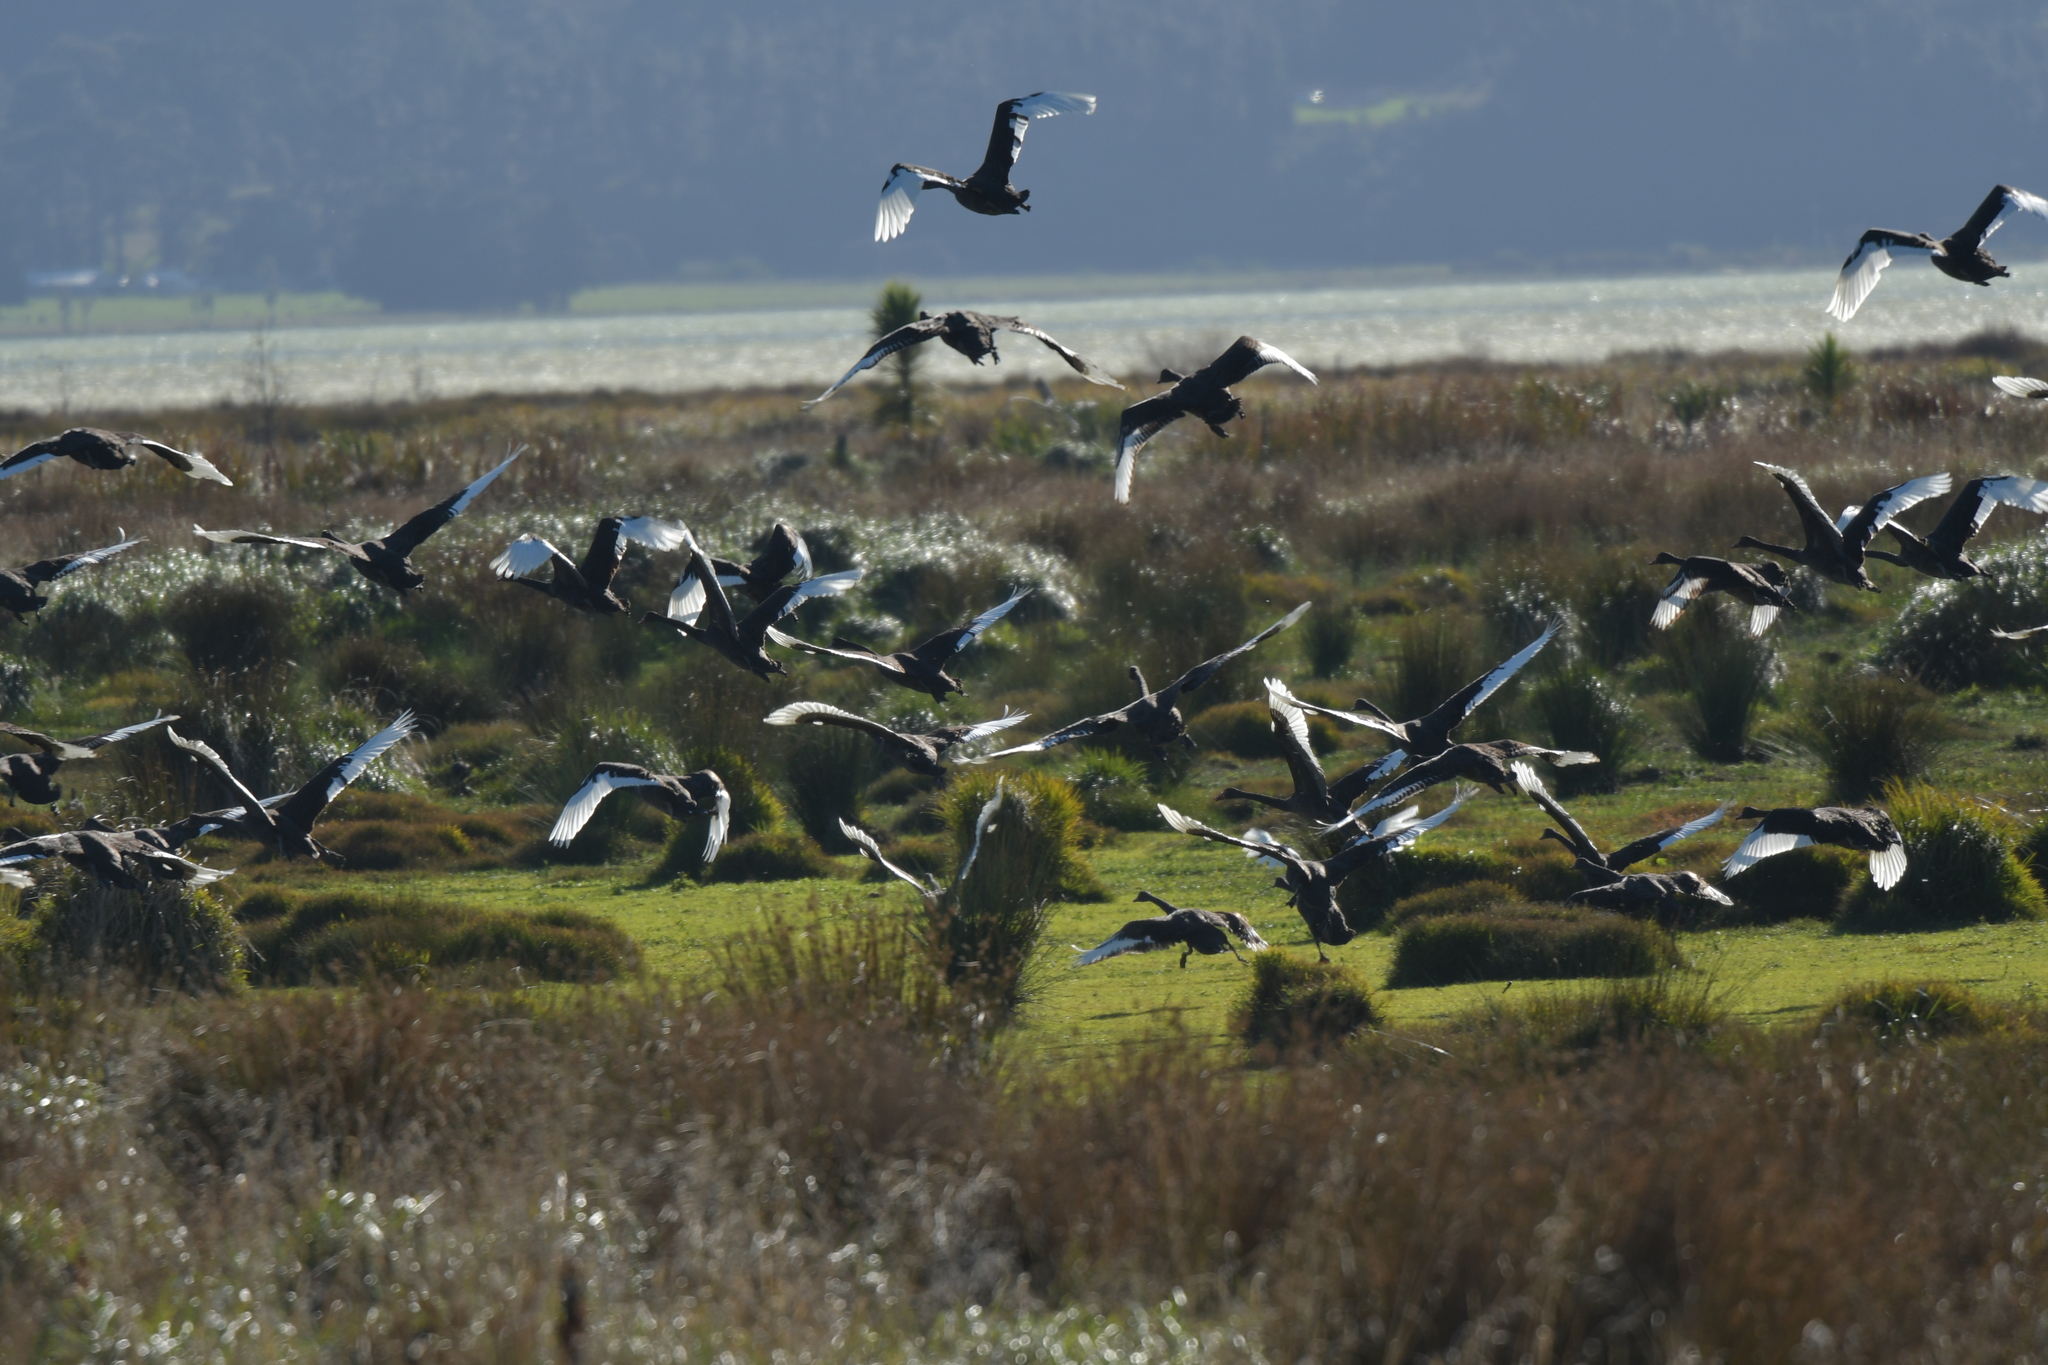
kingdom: Animalia
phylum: Chordata
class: Aves
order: Anseriformes
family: Anatidae
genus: Cygnus
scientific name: Cygnus atratus
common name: Black swan
